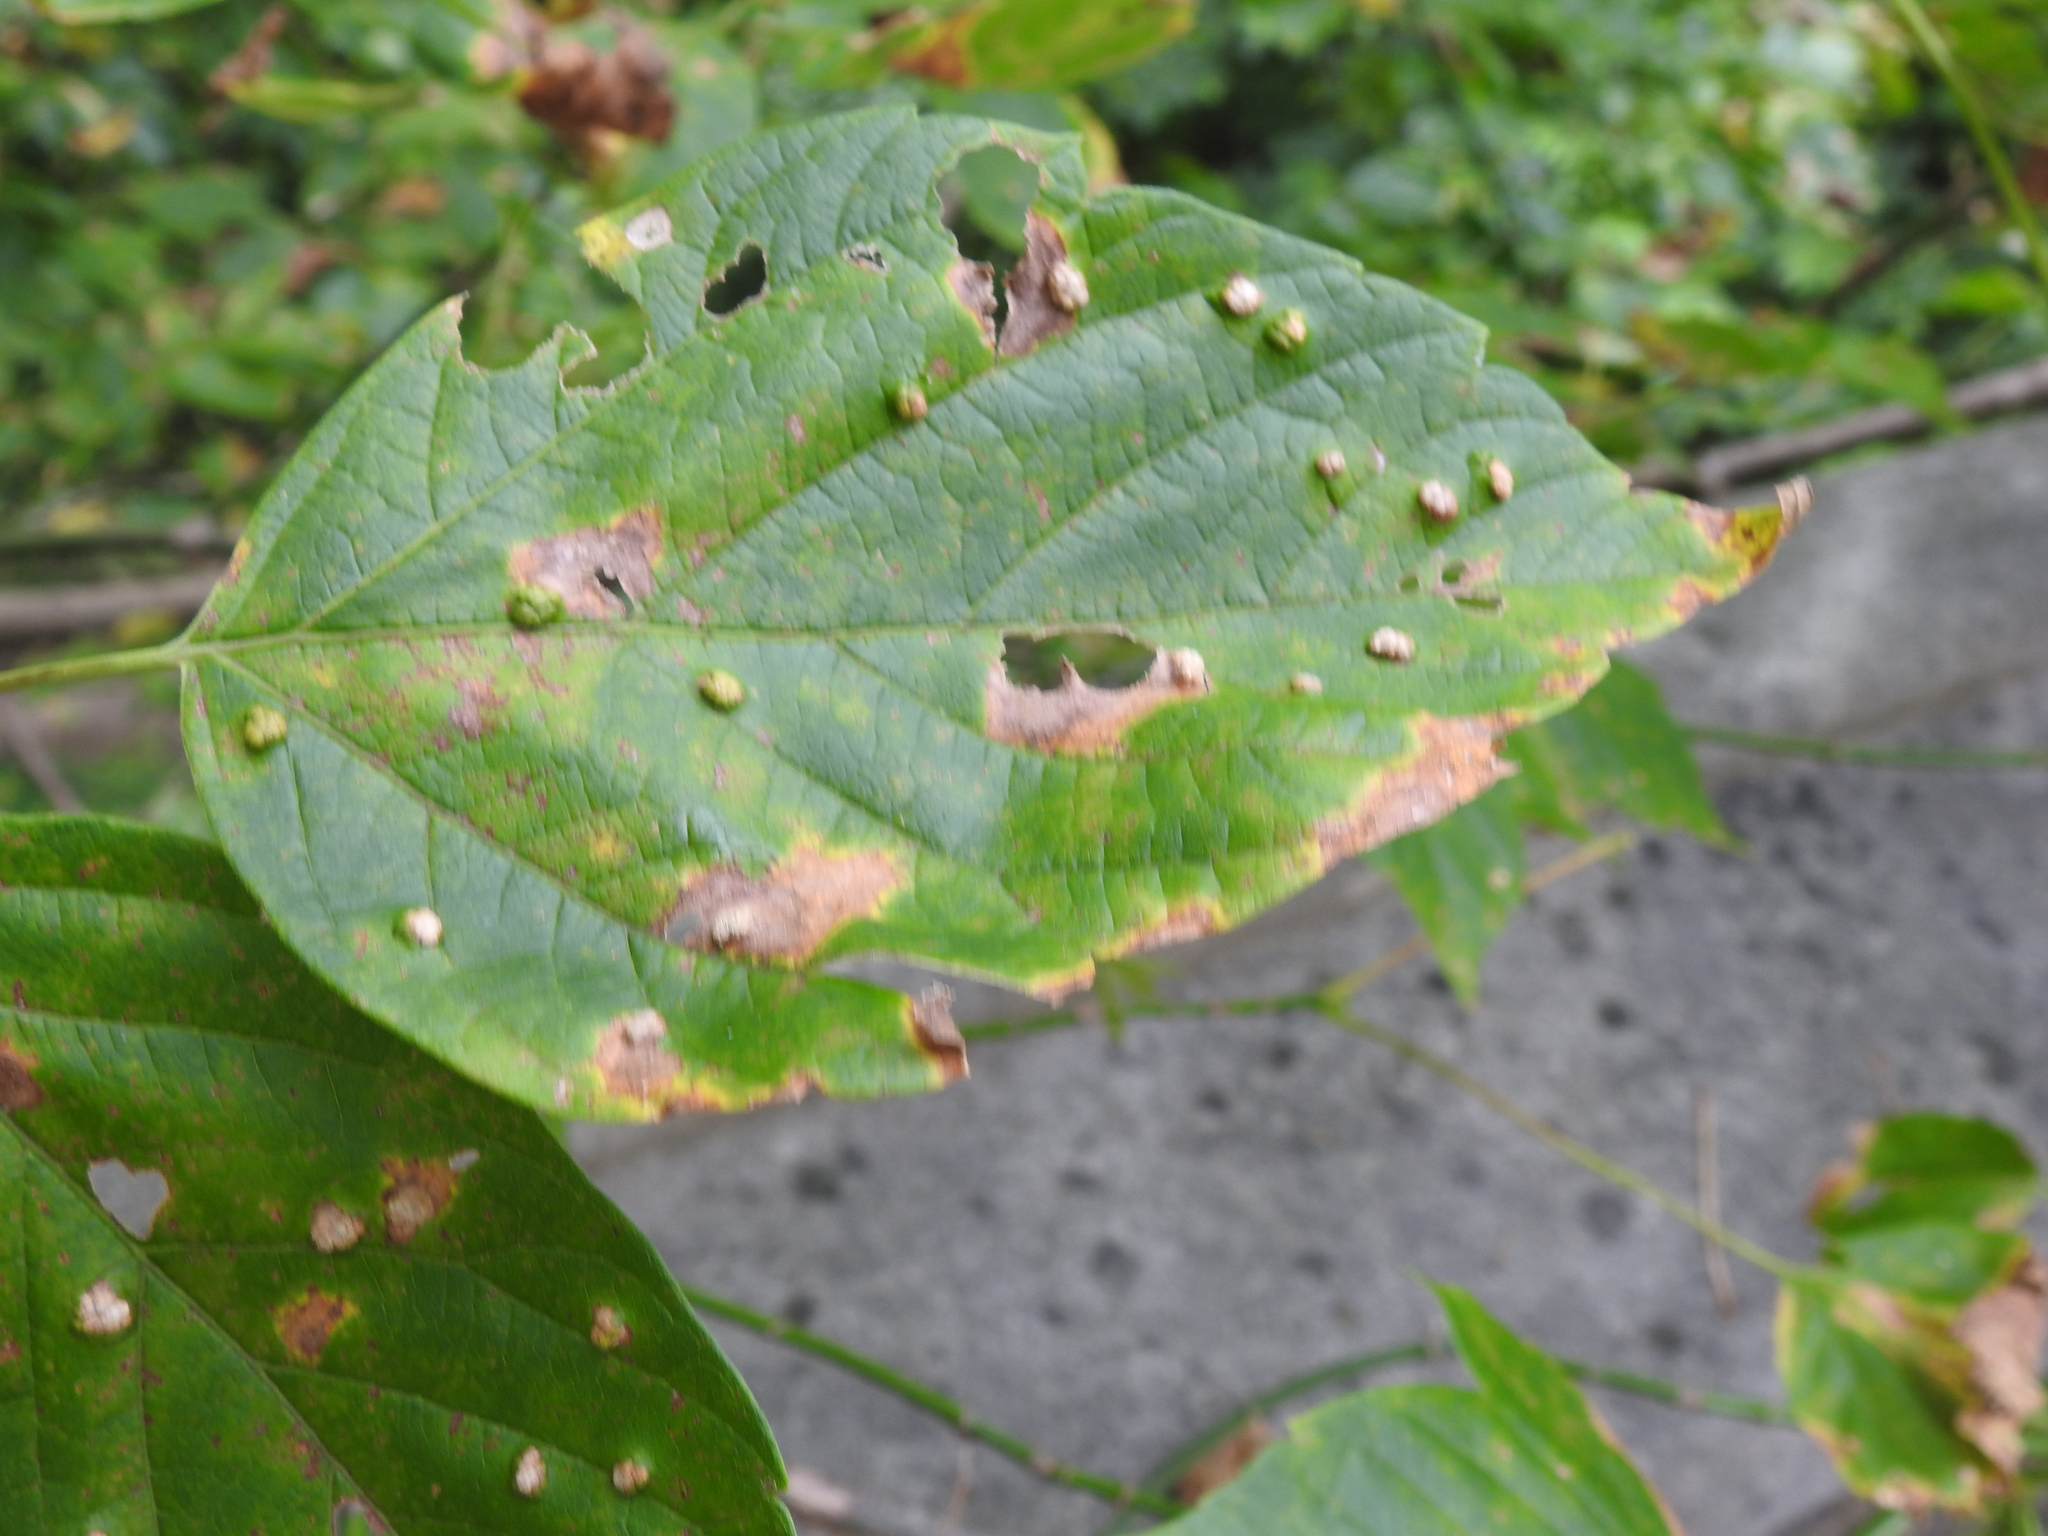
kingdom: Animalia
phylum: Arthropoda
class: Arachnida
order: Trombidiformes
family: Eriophyidae
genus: Aceria
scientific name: Aceria
